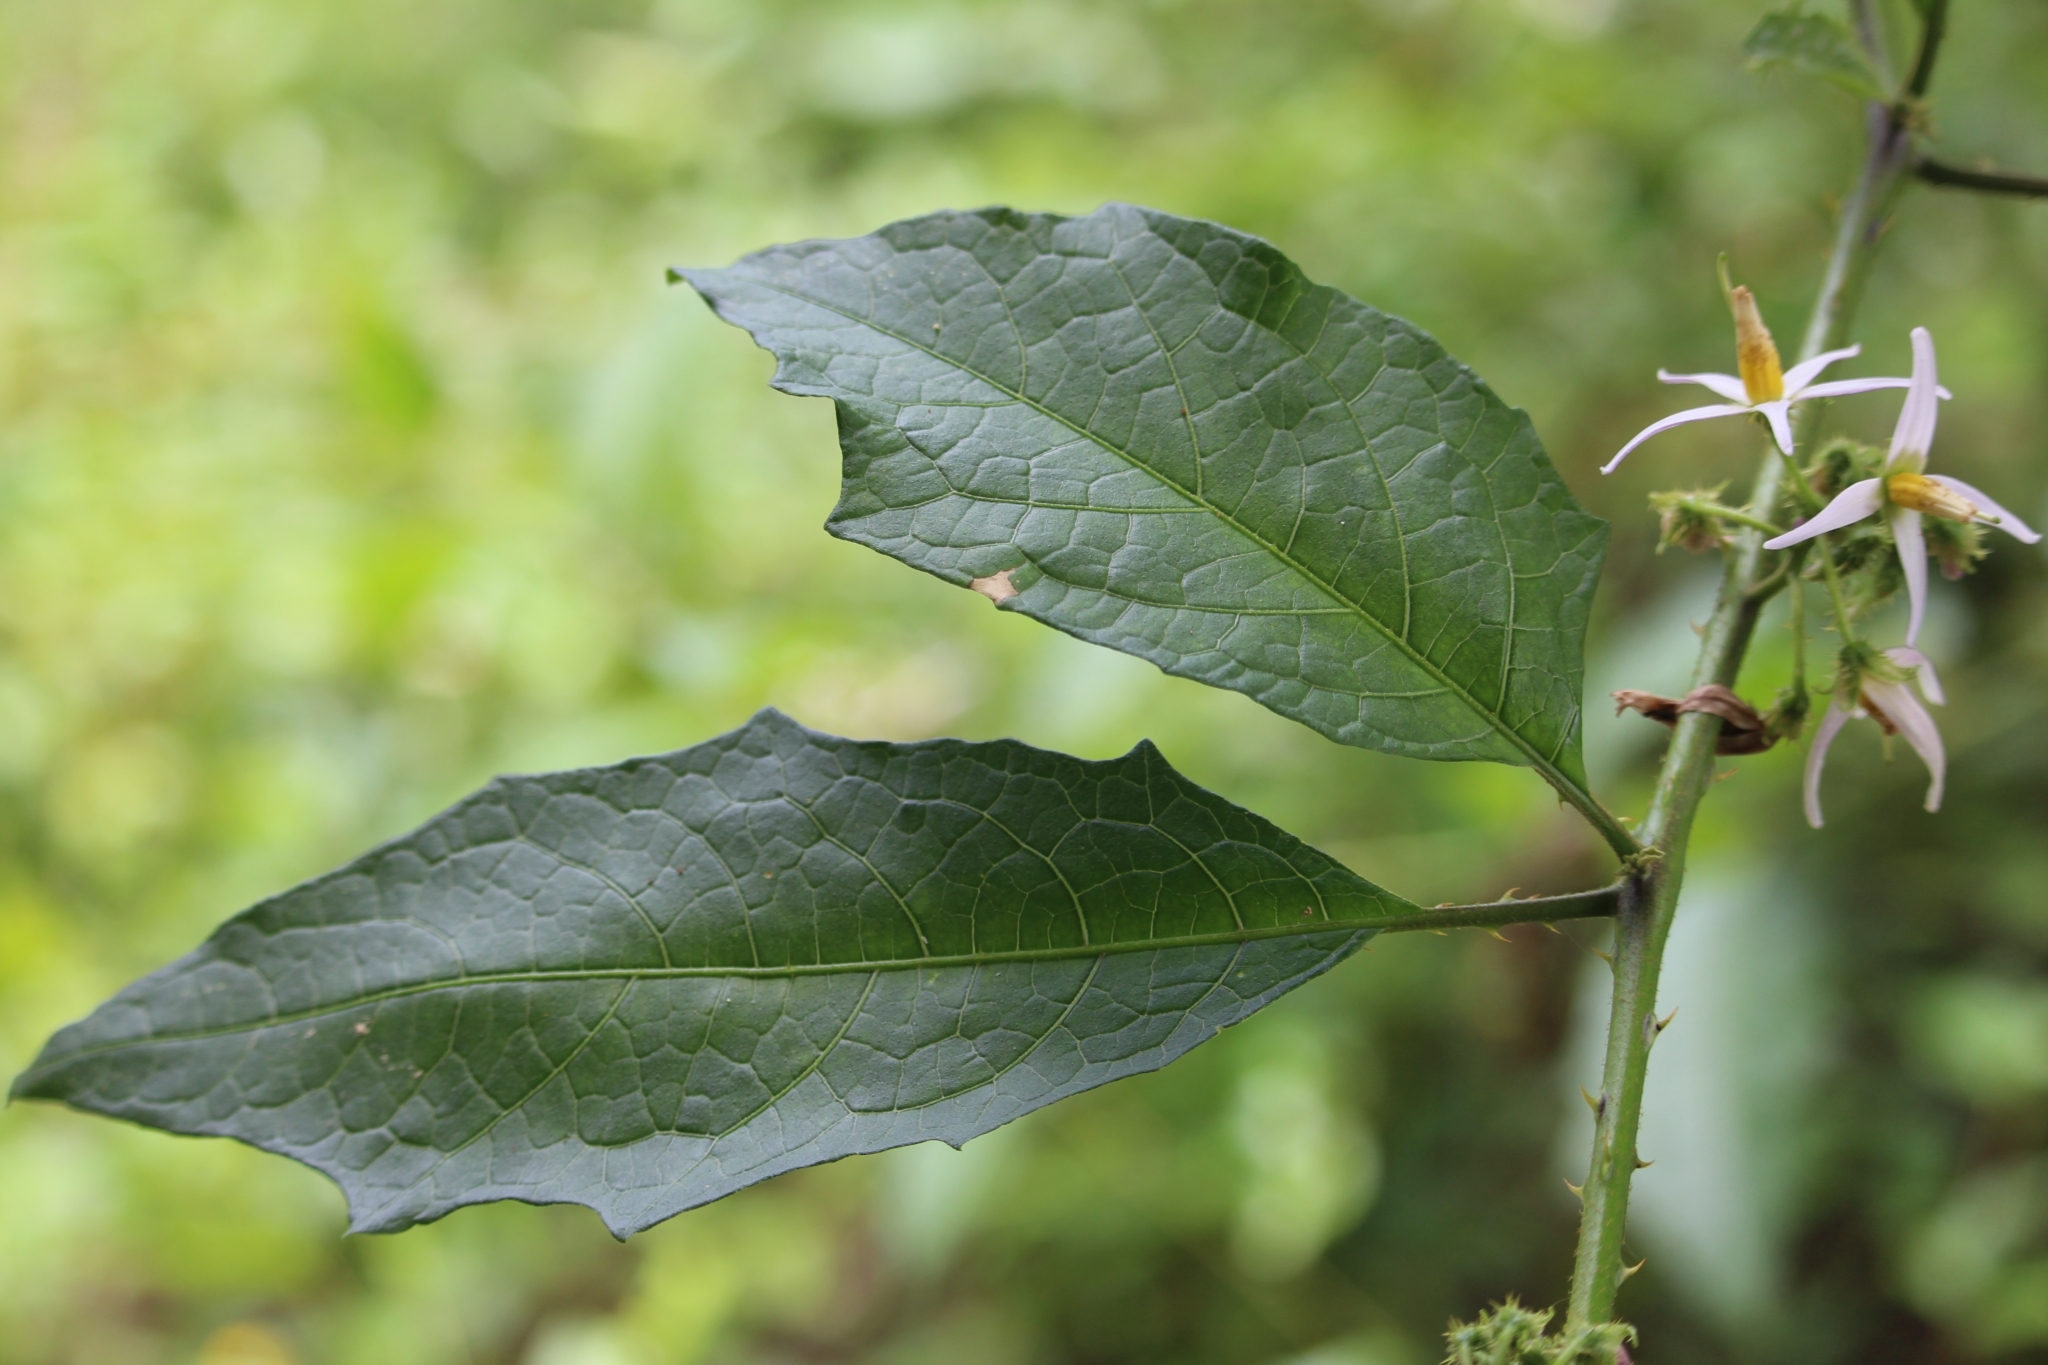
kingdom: Plantae
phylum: Tracheophyta
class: Magnoliopsida
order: Solanales
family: Solanaceae
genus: Solanum
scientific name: Solanum volubile
